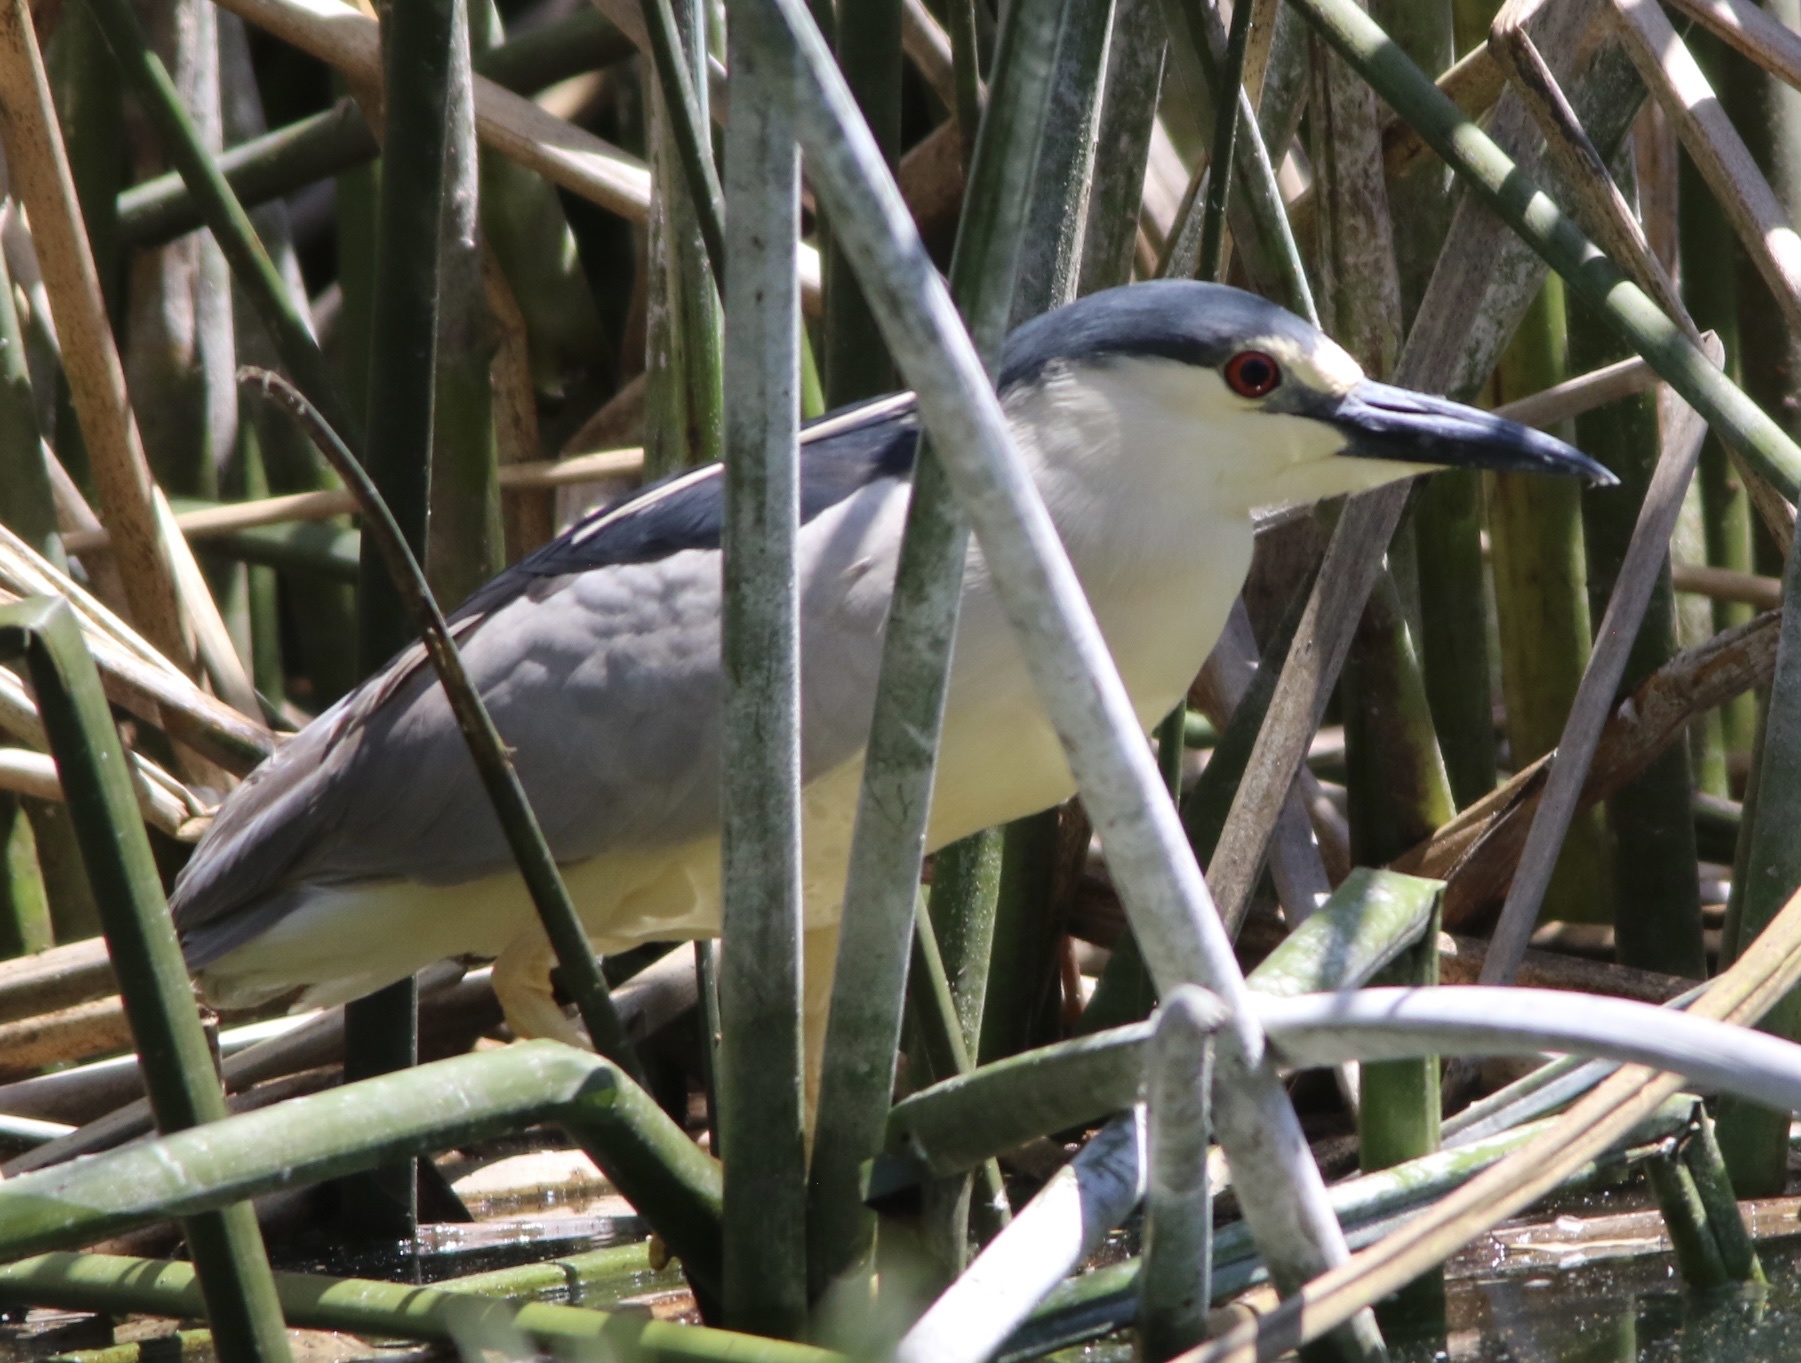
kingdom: Animalia
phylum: Chordata
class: Aves
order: Pelecaniformes
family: Ardeidae
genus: Nycticorax
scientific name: Nycticorax nycticorax
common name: Black-crowned night heron
